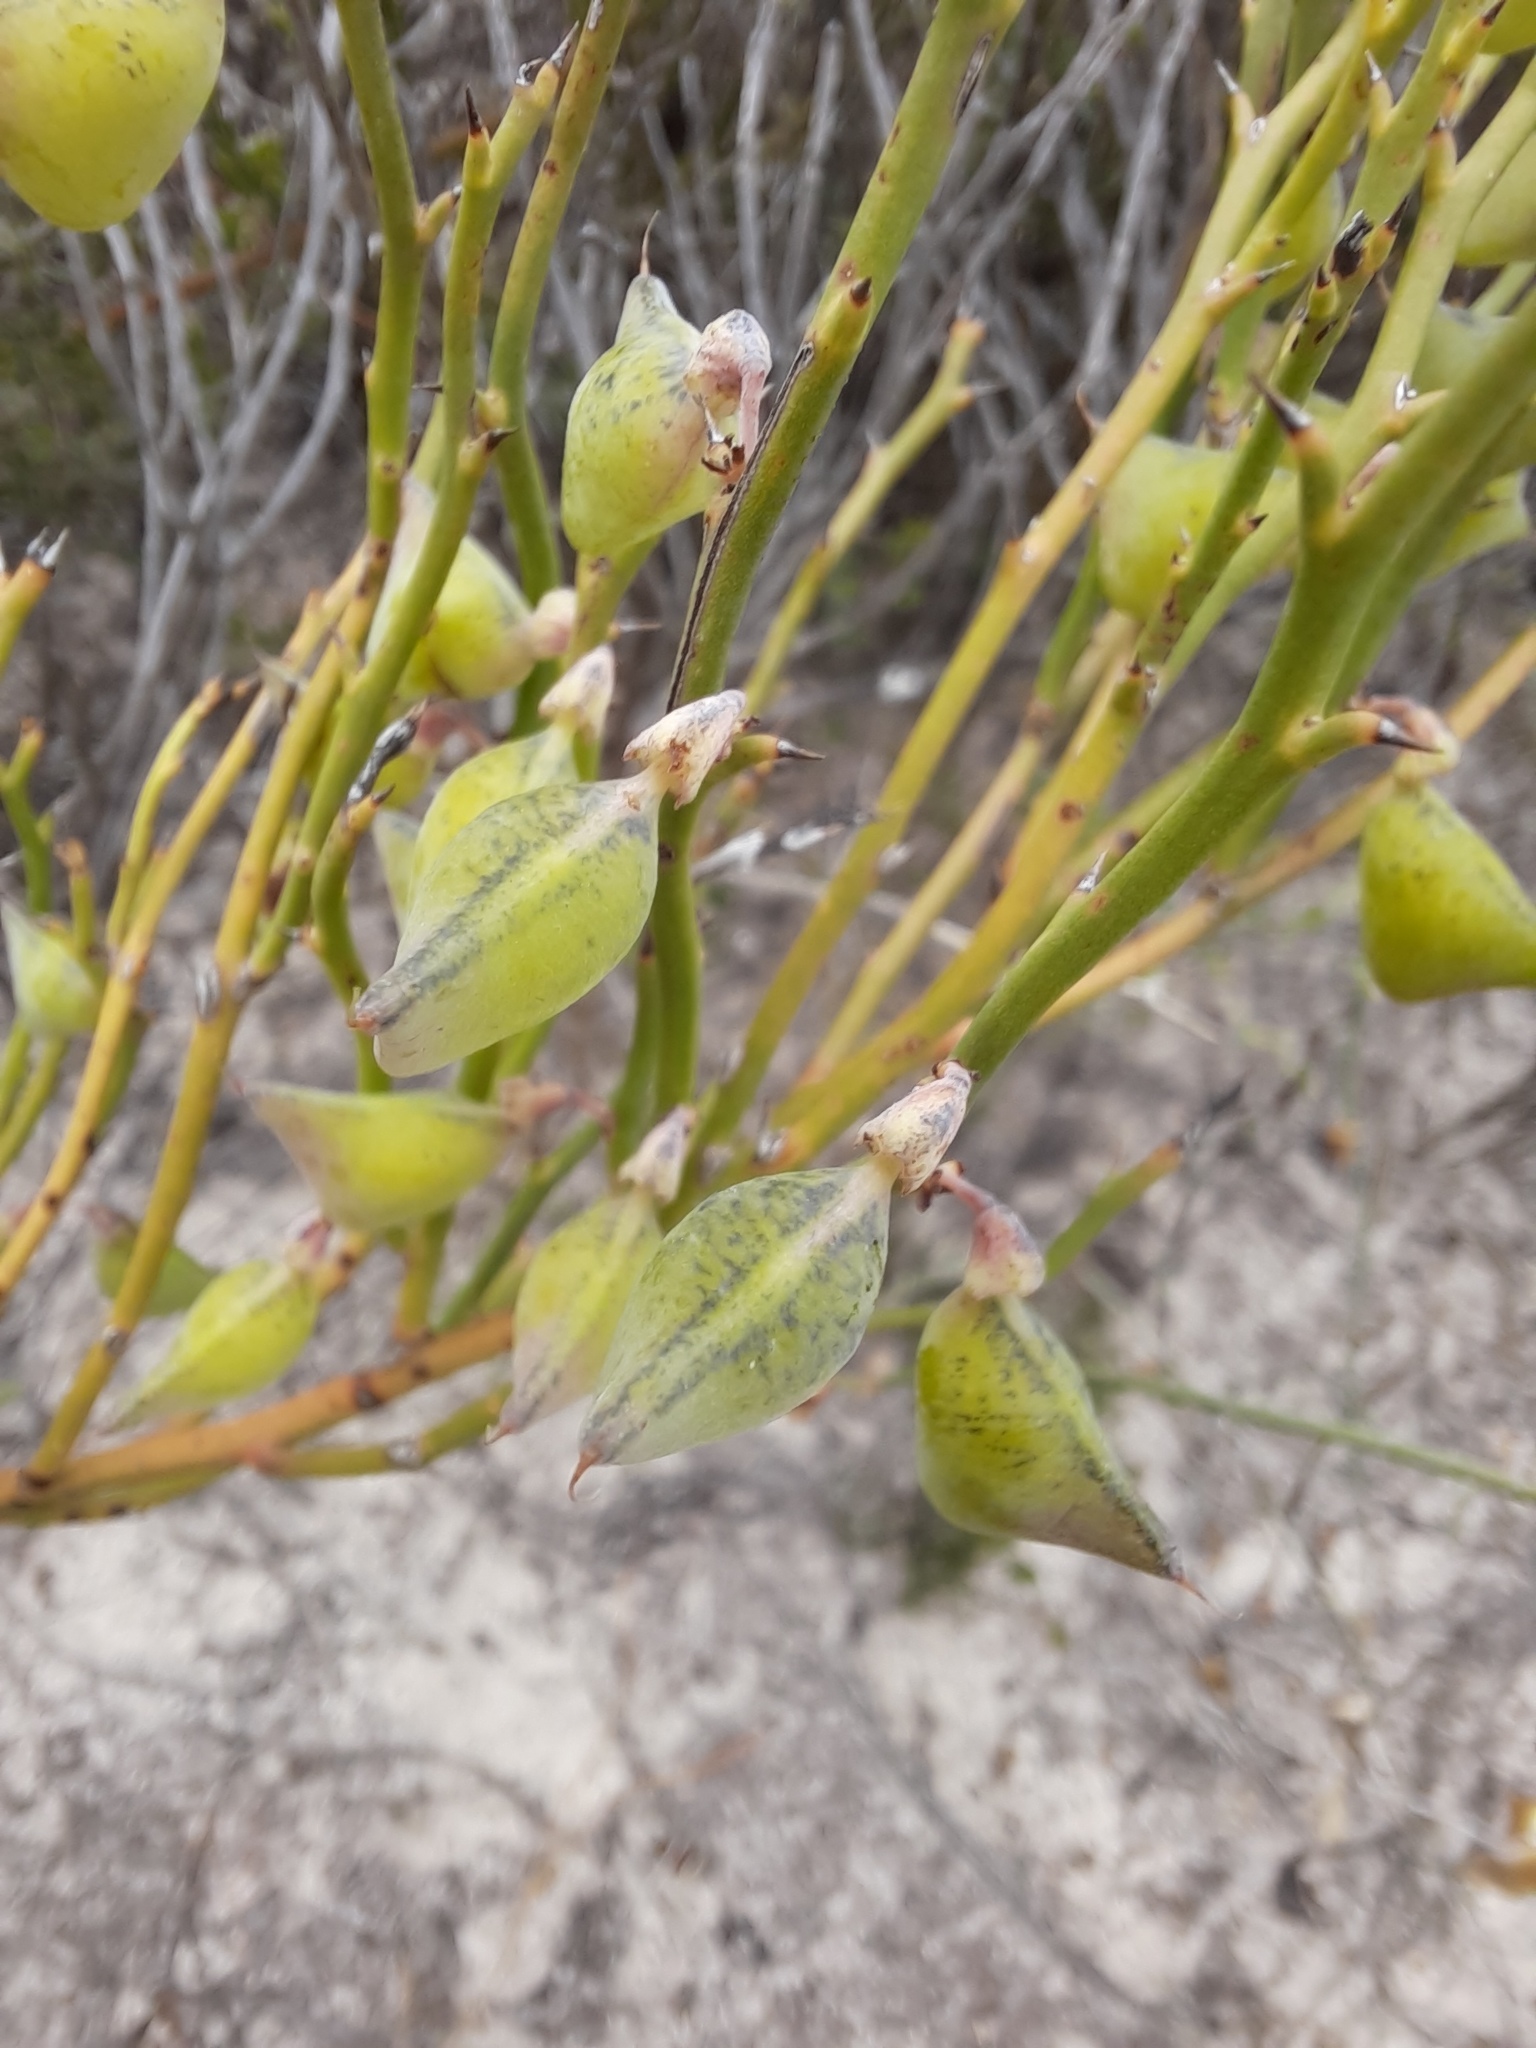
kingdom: Plantae
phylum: Tracheophyta
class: Magnoliopsida
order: Fabales
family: Fabaceae
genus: Daviesia
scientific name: Daviesia brevifolia
